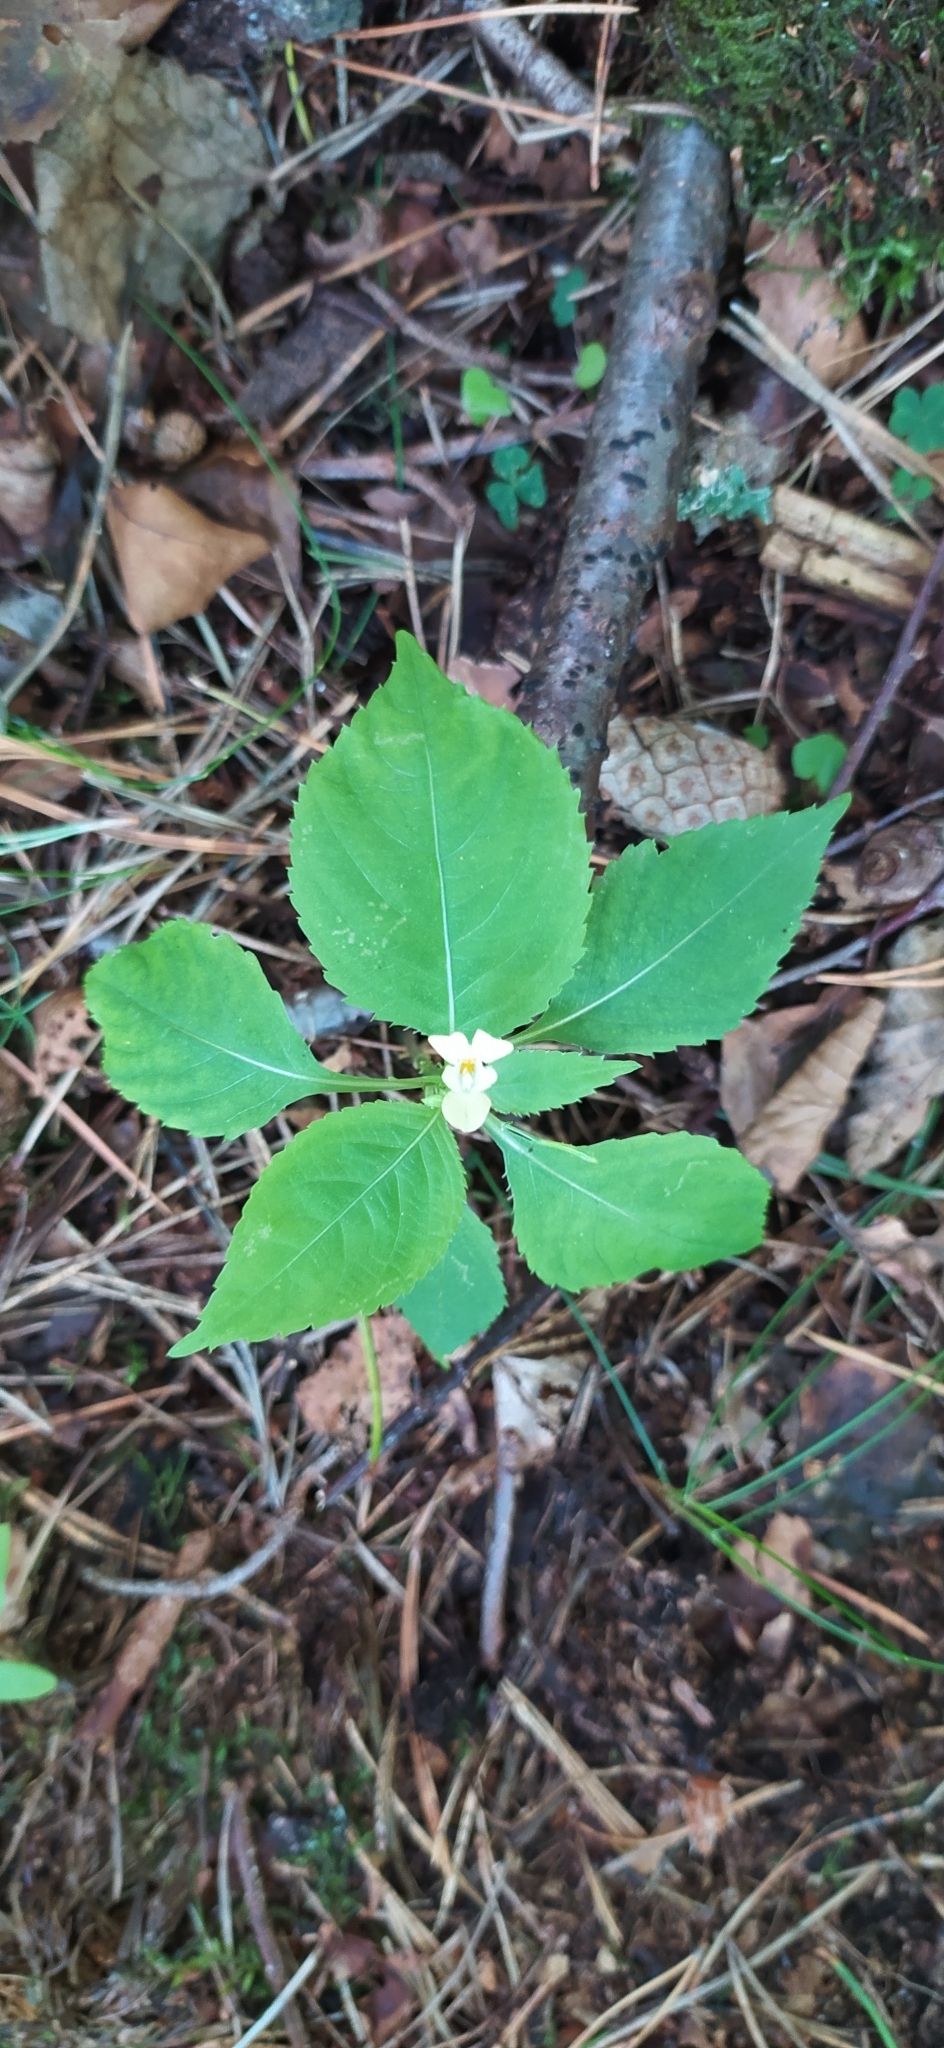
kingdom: Plantae
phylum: Tracheophyta
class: Magnoliopsida
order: Ericales
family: Balsaminaceae
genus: Impatiens
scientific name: Impatiens parviflora
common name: Small balsam
